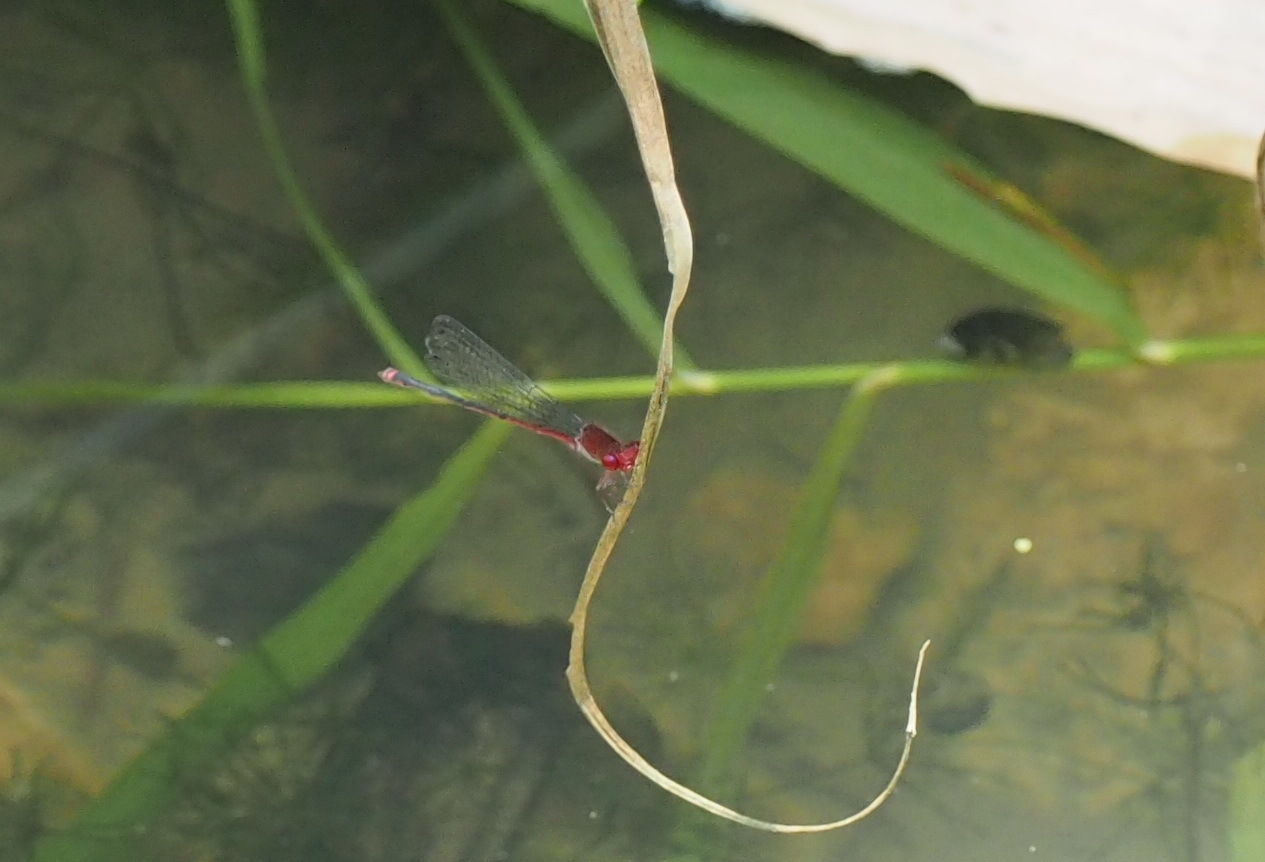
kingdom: Animalia
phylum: Arthropoda
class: Insecta
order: Odonata
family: Coenagrionidae
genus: Pseudagrion
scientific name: Pseudagrion pilidorsum
